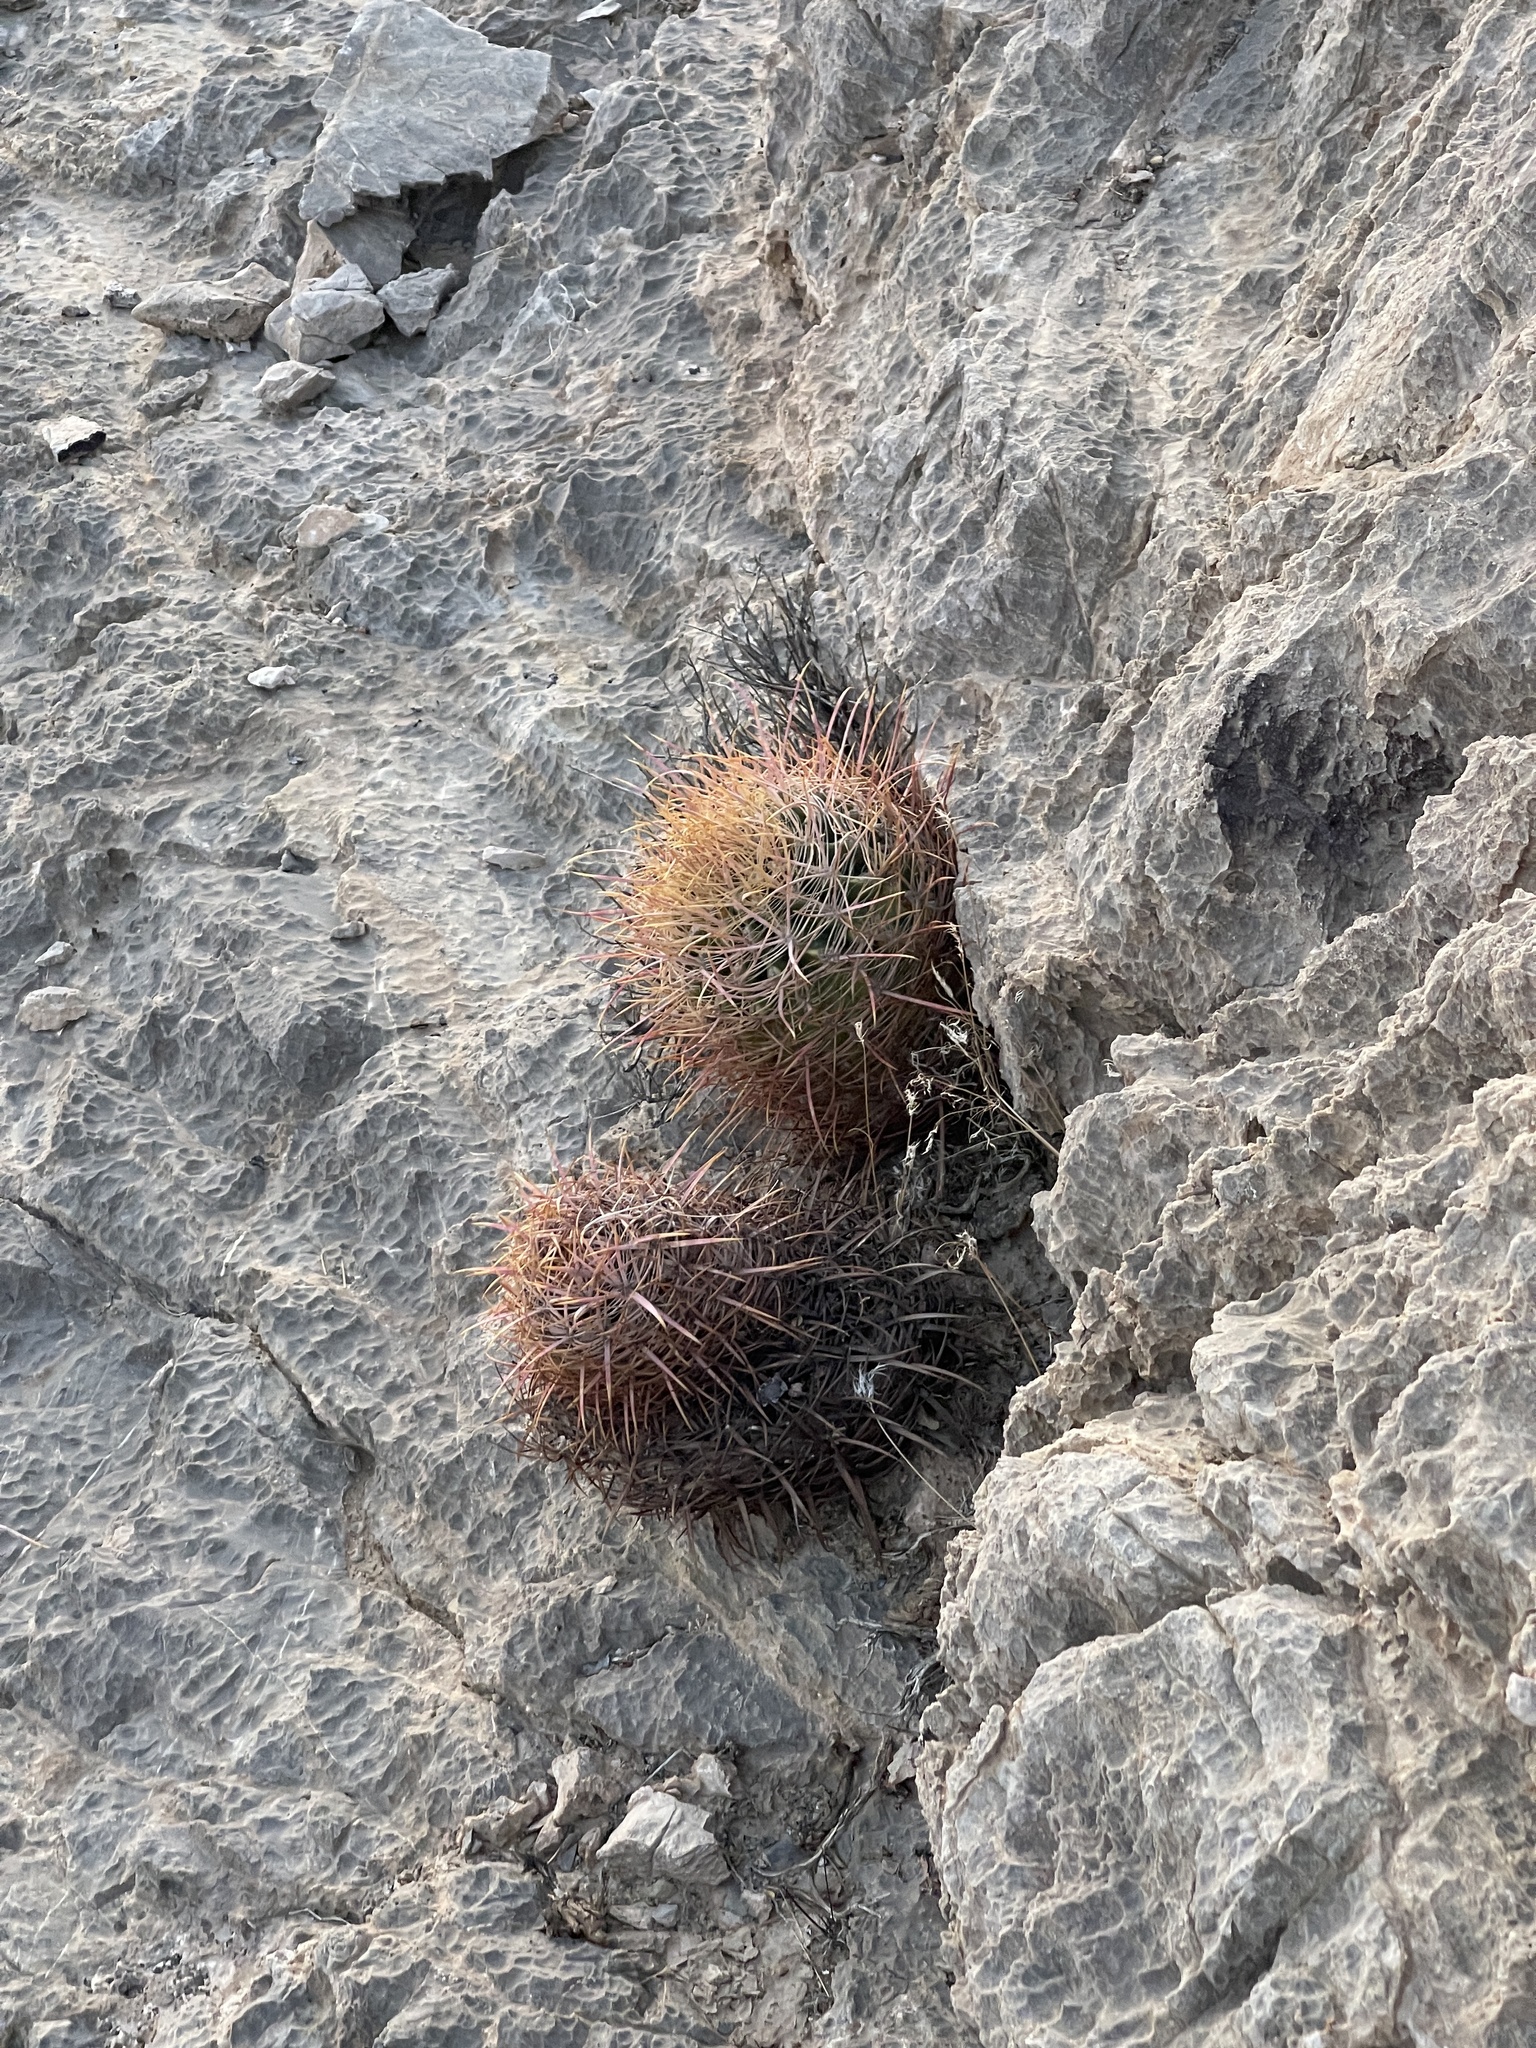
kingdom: Plantae
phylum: Tracheophyta
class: Magnoliopsida
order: Caryophyllales
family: Cactaceae
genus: Ferocactus
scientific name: Ferocactus cylindraceus
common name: California barrel cactus
